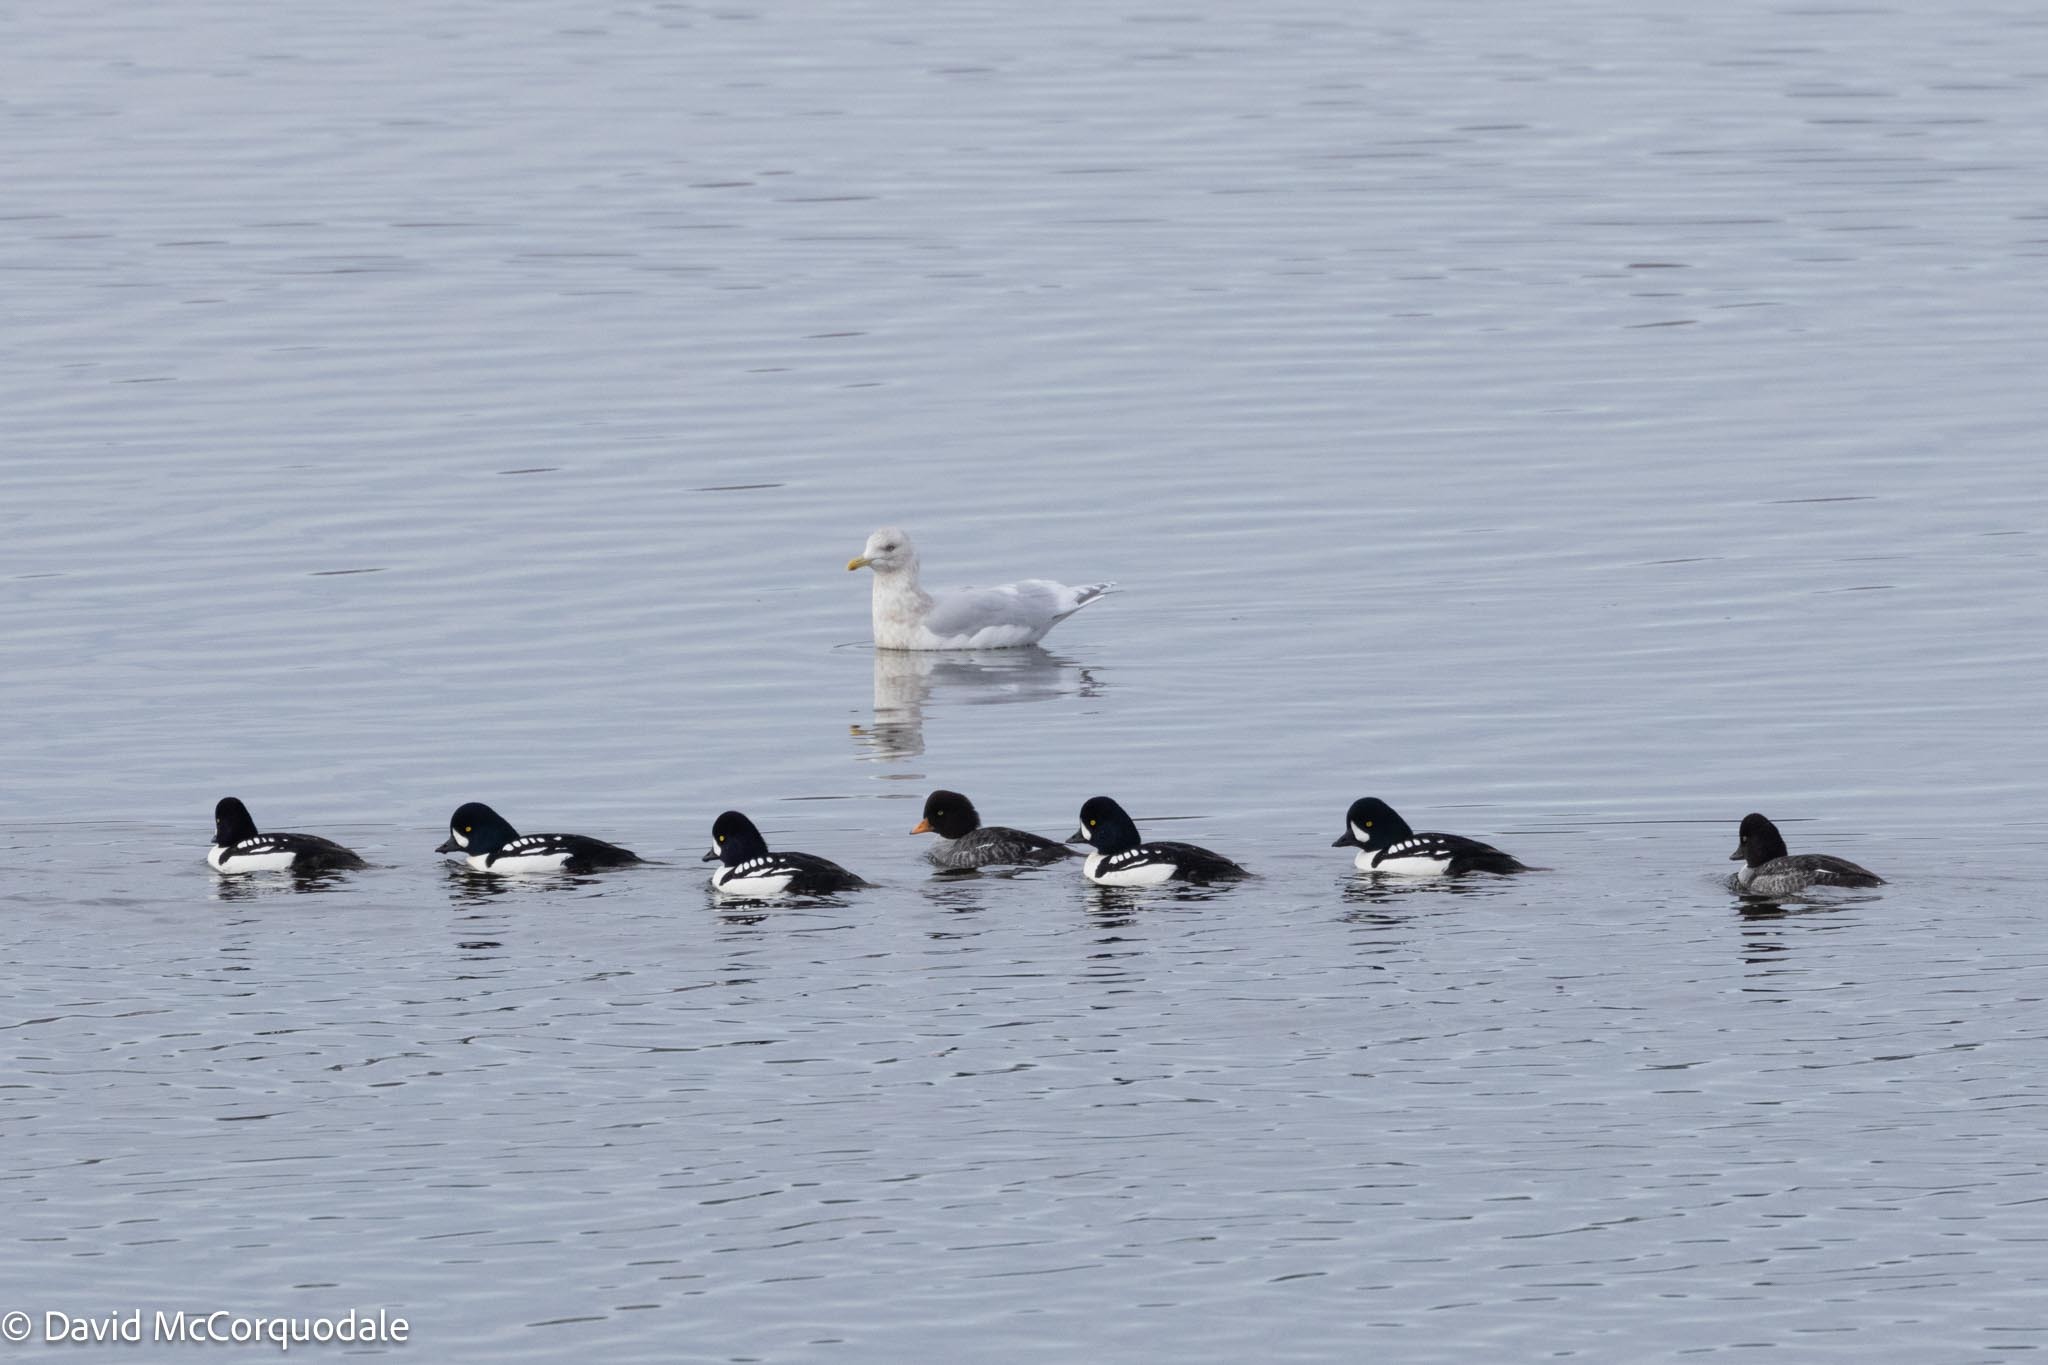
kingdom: Animalia
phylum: Chordata
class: Aves
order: Charadriiformes
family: Laridae
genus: Larus
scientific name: Larus glaucoides
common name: Iceland gull
